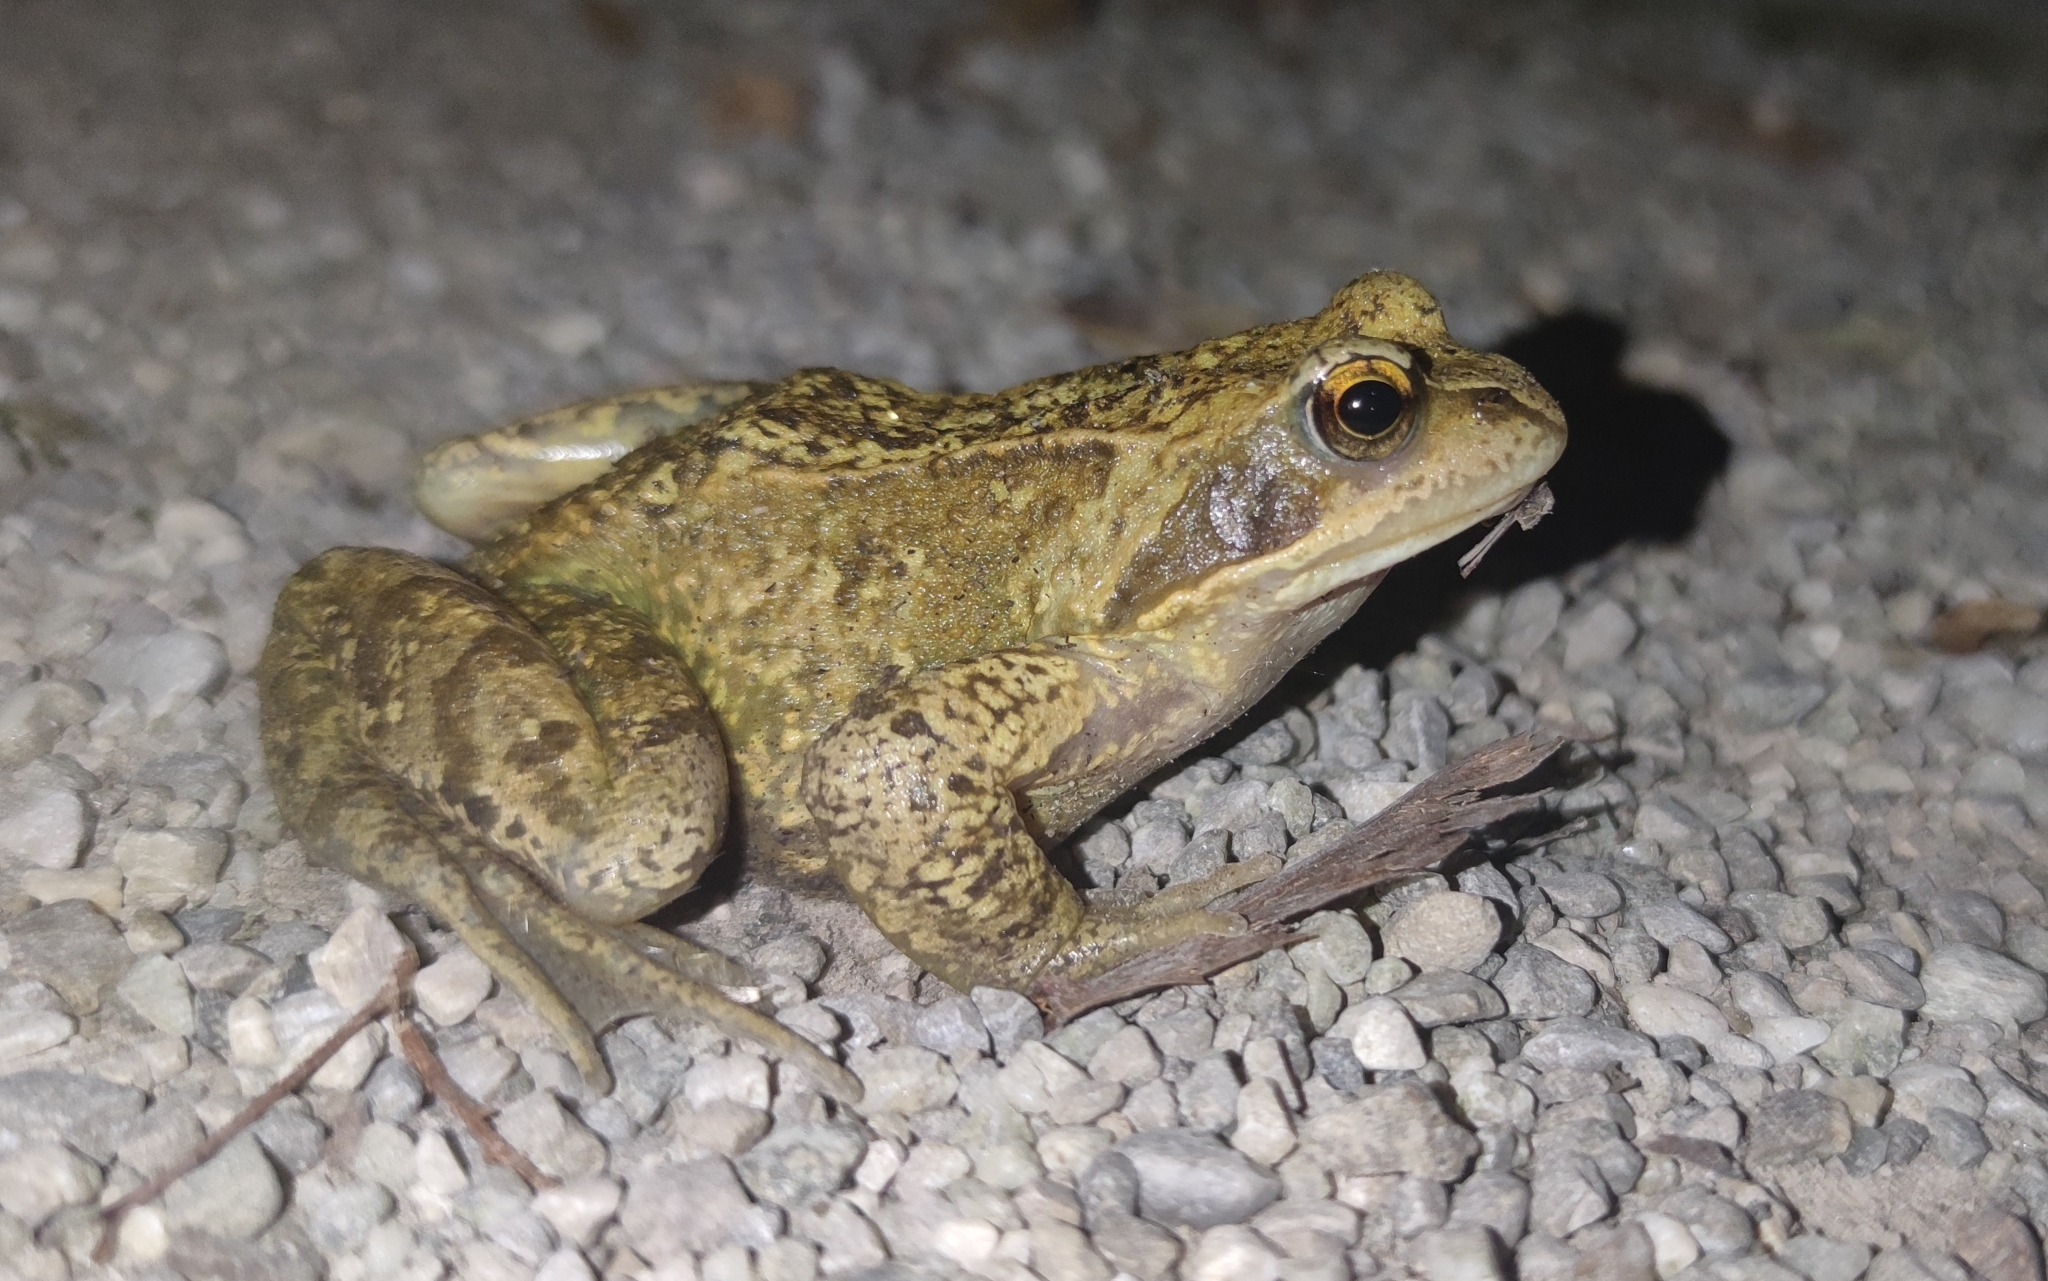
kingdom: Animalia
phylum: Chordata
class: Amphibia
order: Anura
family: Ranidae
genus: Rana
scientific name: Rana temporaria
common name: Common frog
